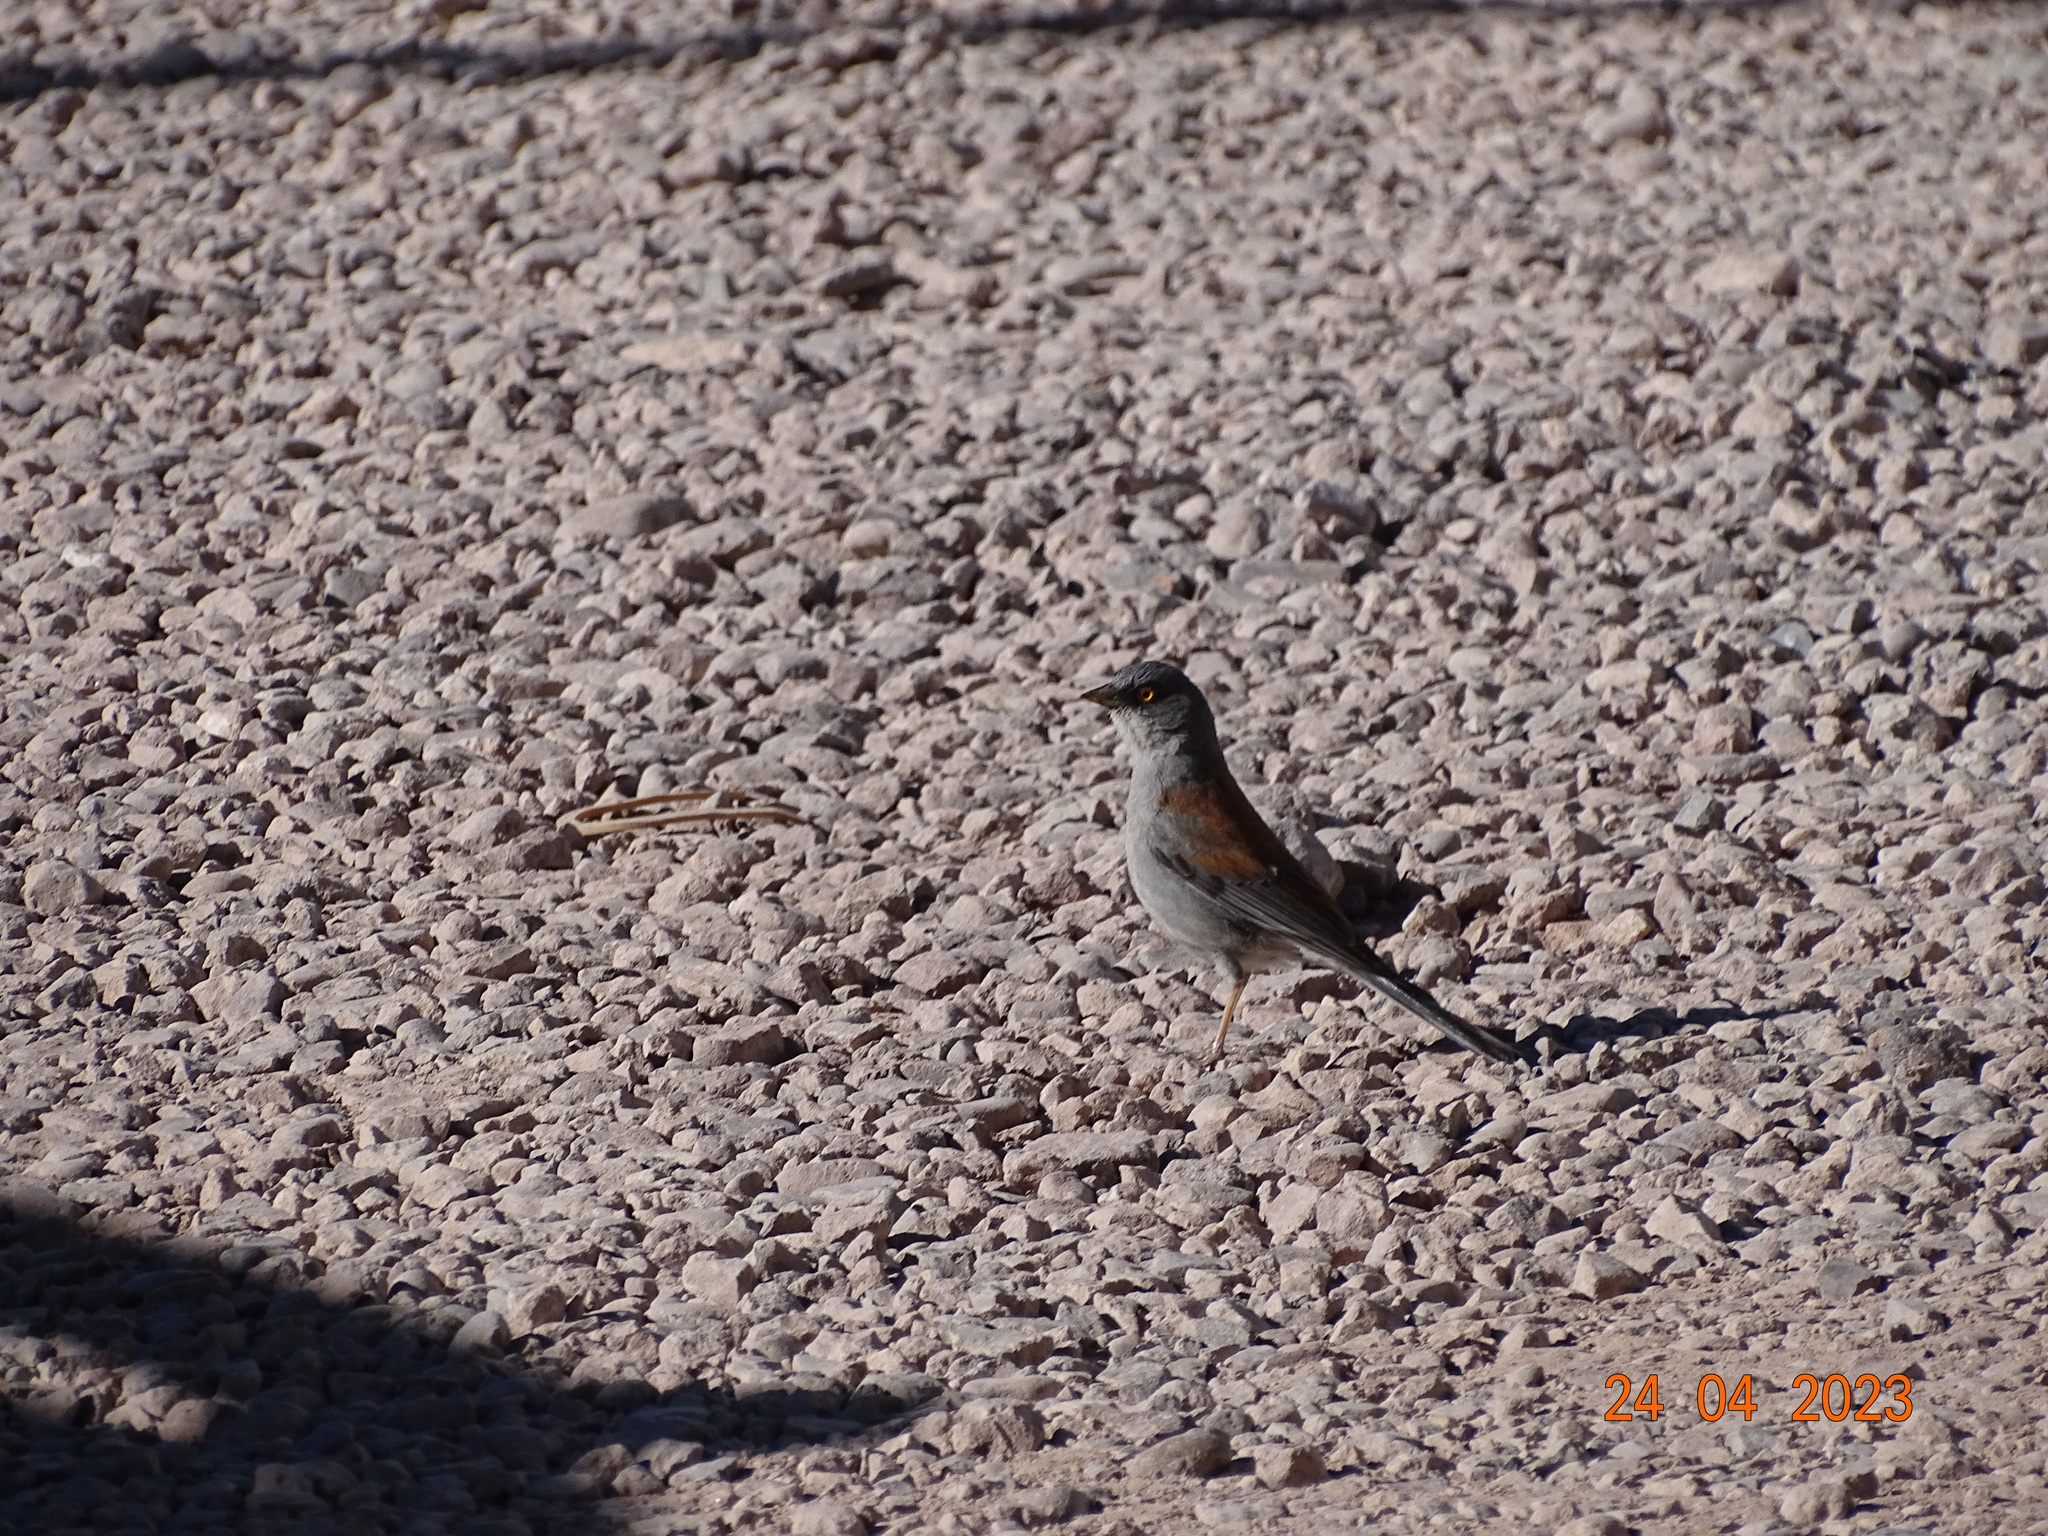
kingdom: Animalia
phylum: Chordata
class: Aves
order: Passeriformes
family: Passerellidae
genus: Junco
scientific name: Junco phaeonotus
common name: Yellow-eyed junco
